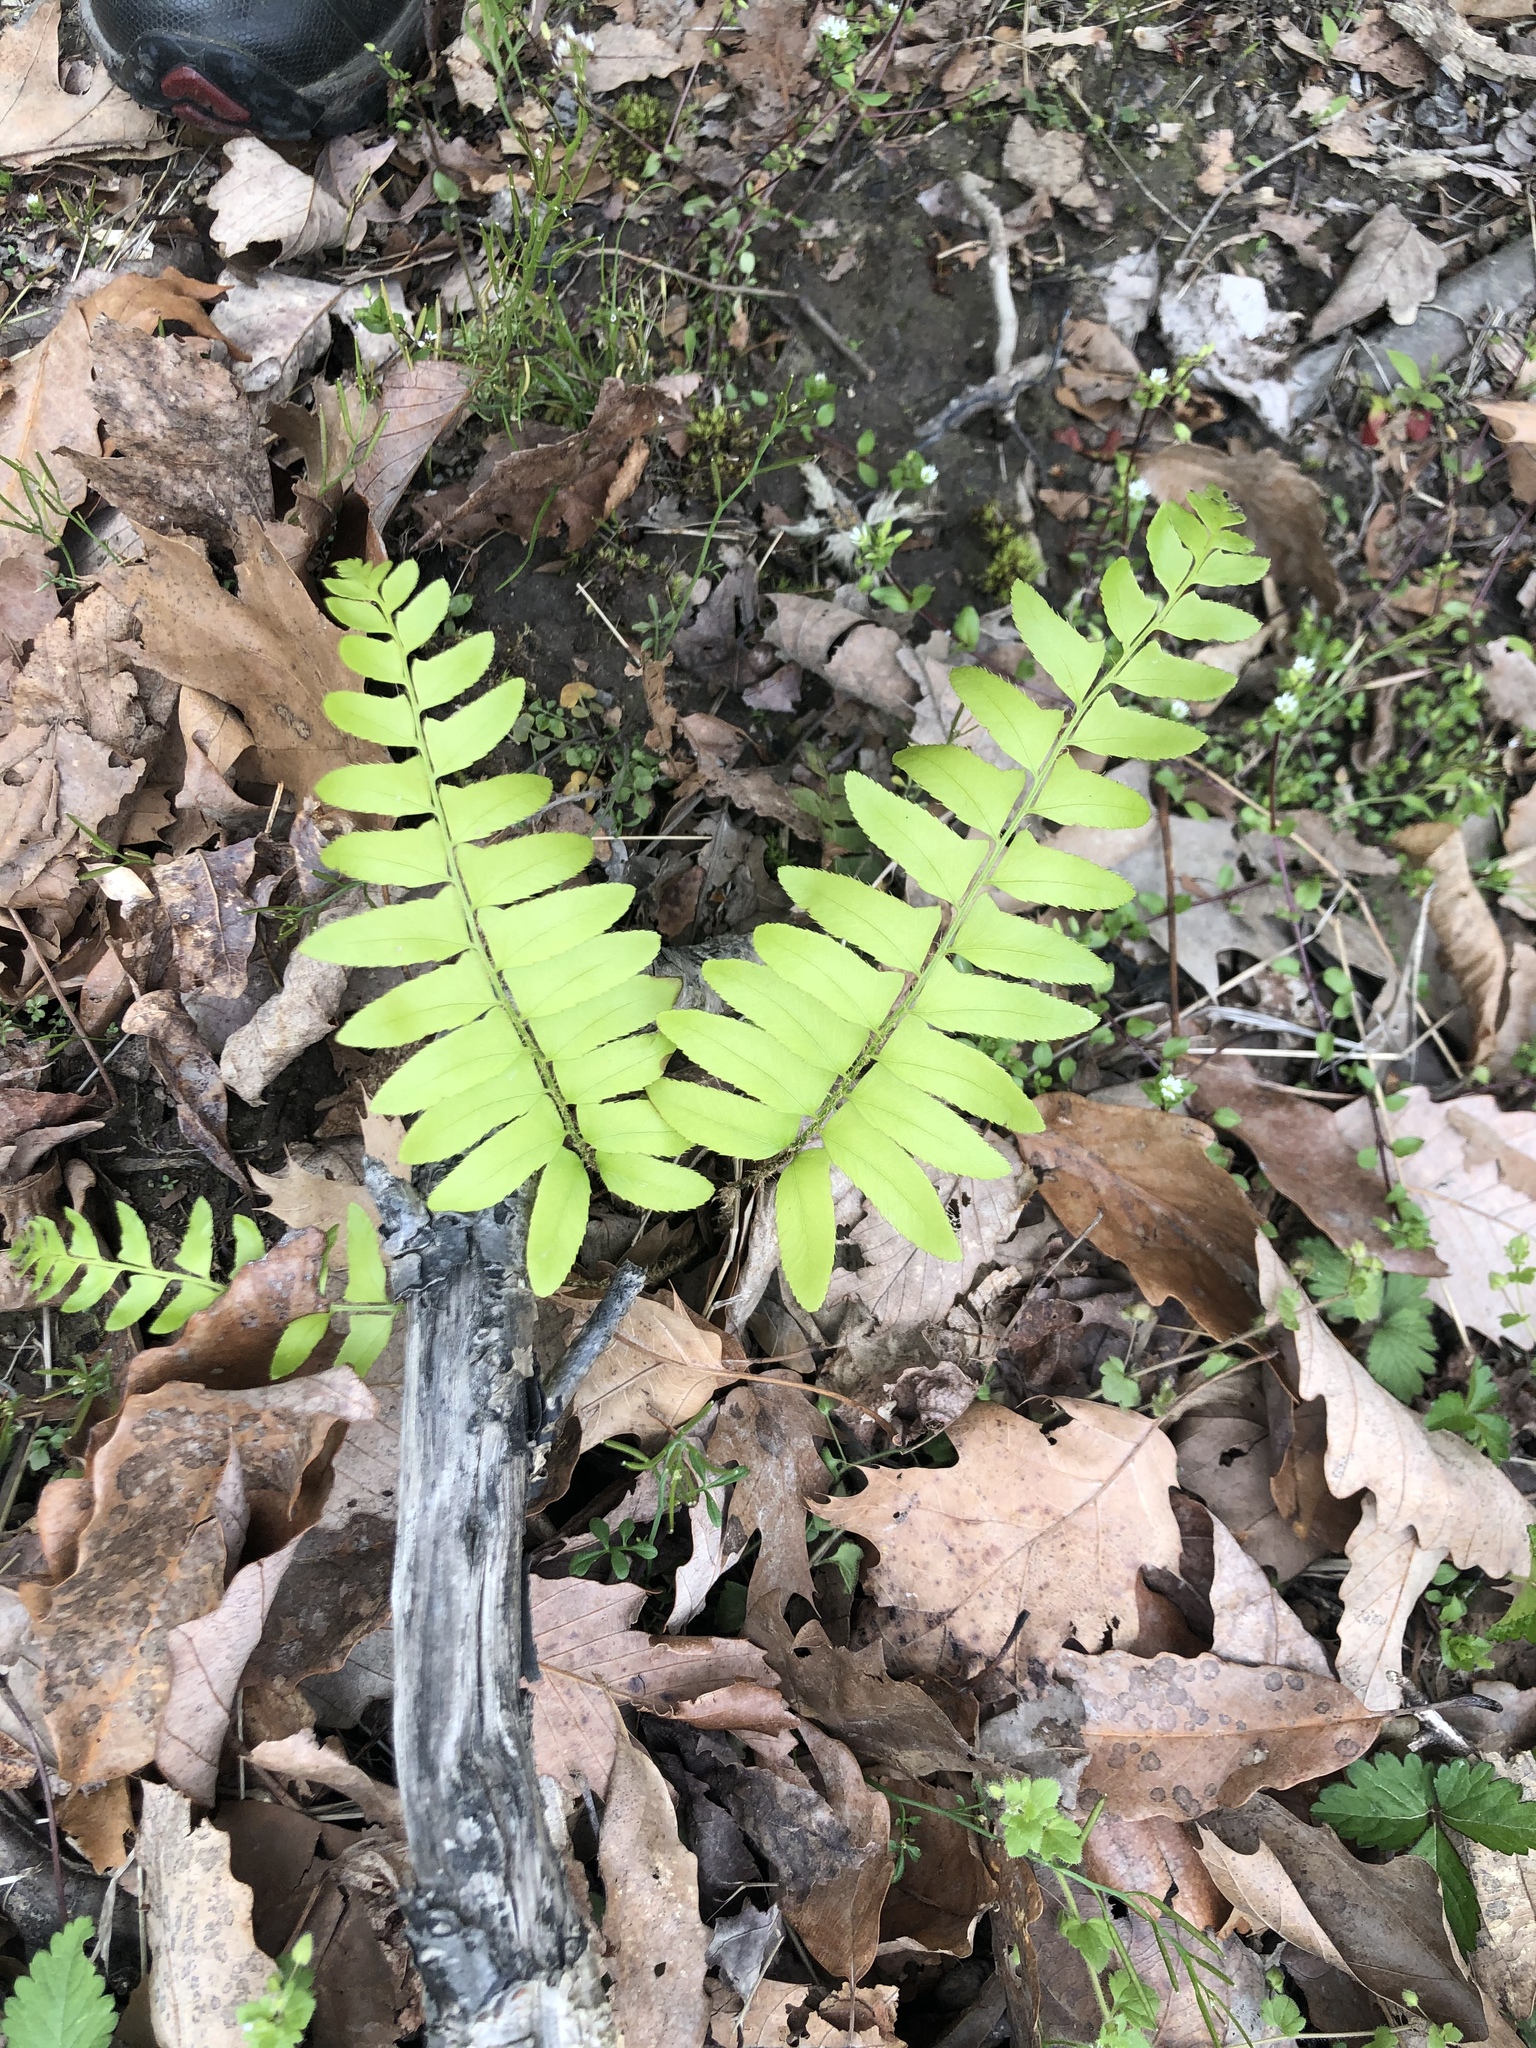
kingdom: Plantae
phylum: Tracheophyta
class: Polypodiopsida
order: Polypodiales
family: Dryopteridaceae
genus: Polystichum
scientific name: Polystichum acrostichoides
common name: Christmas fern
